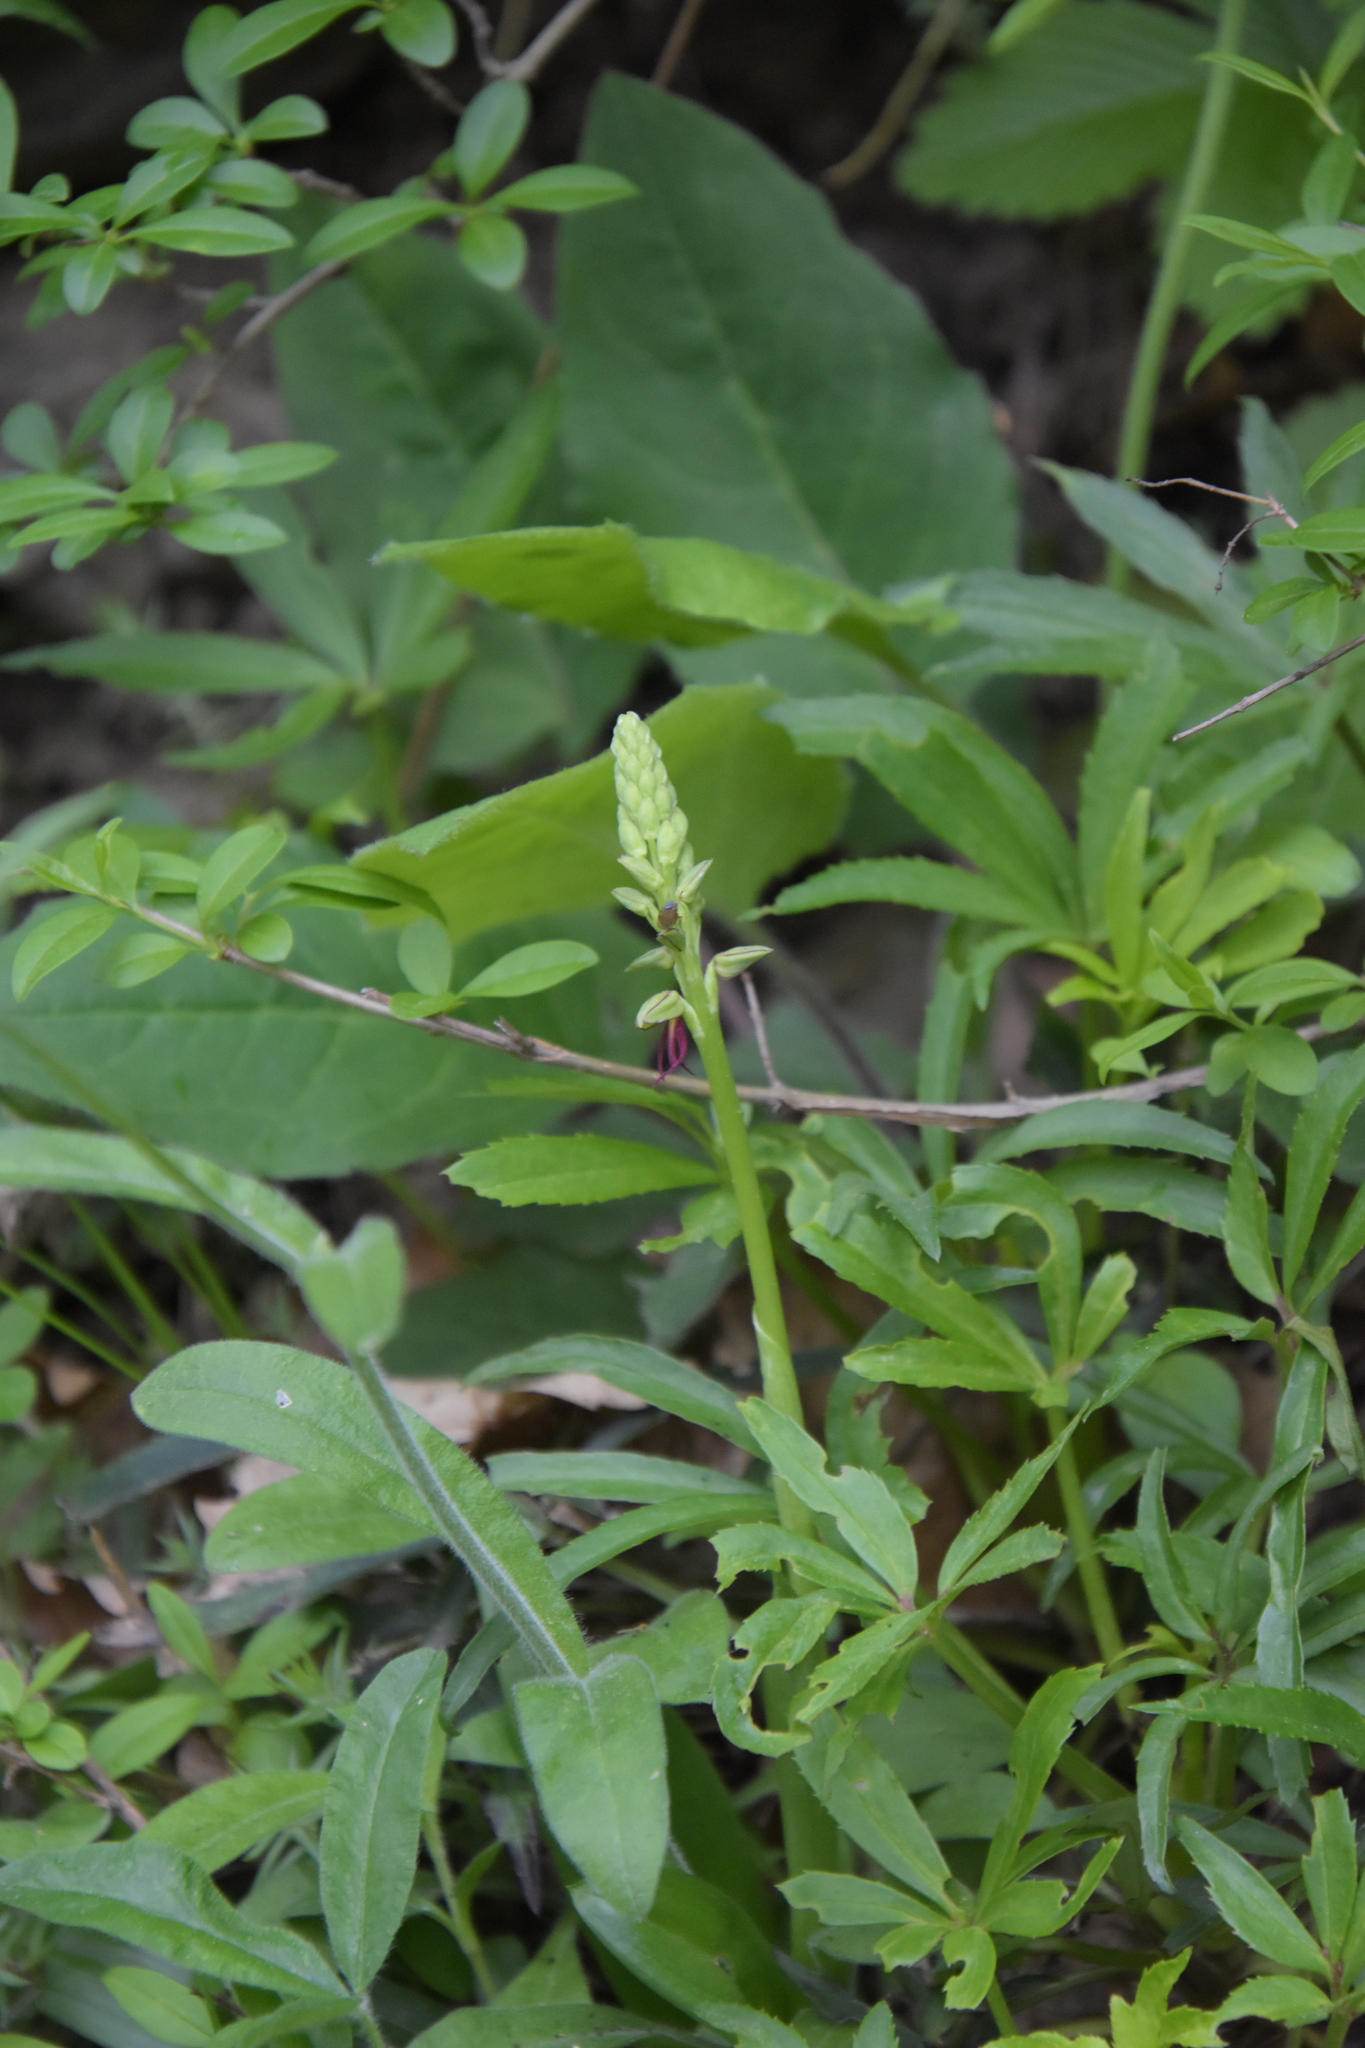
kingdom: Plantae
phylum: Tracheophyta
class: Liliopsida
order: Asparagales
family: Orchidaceae
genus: Orchis
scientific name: Orchis anthropophora
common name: Man orchid
